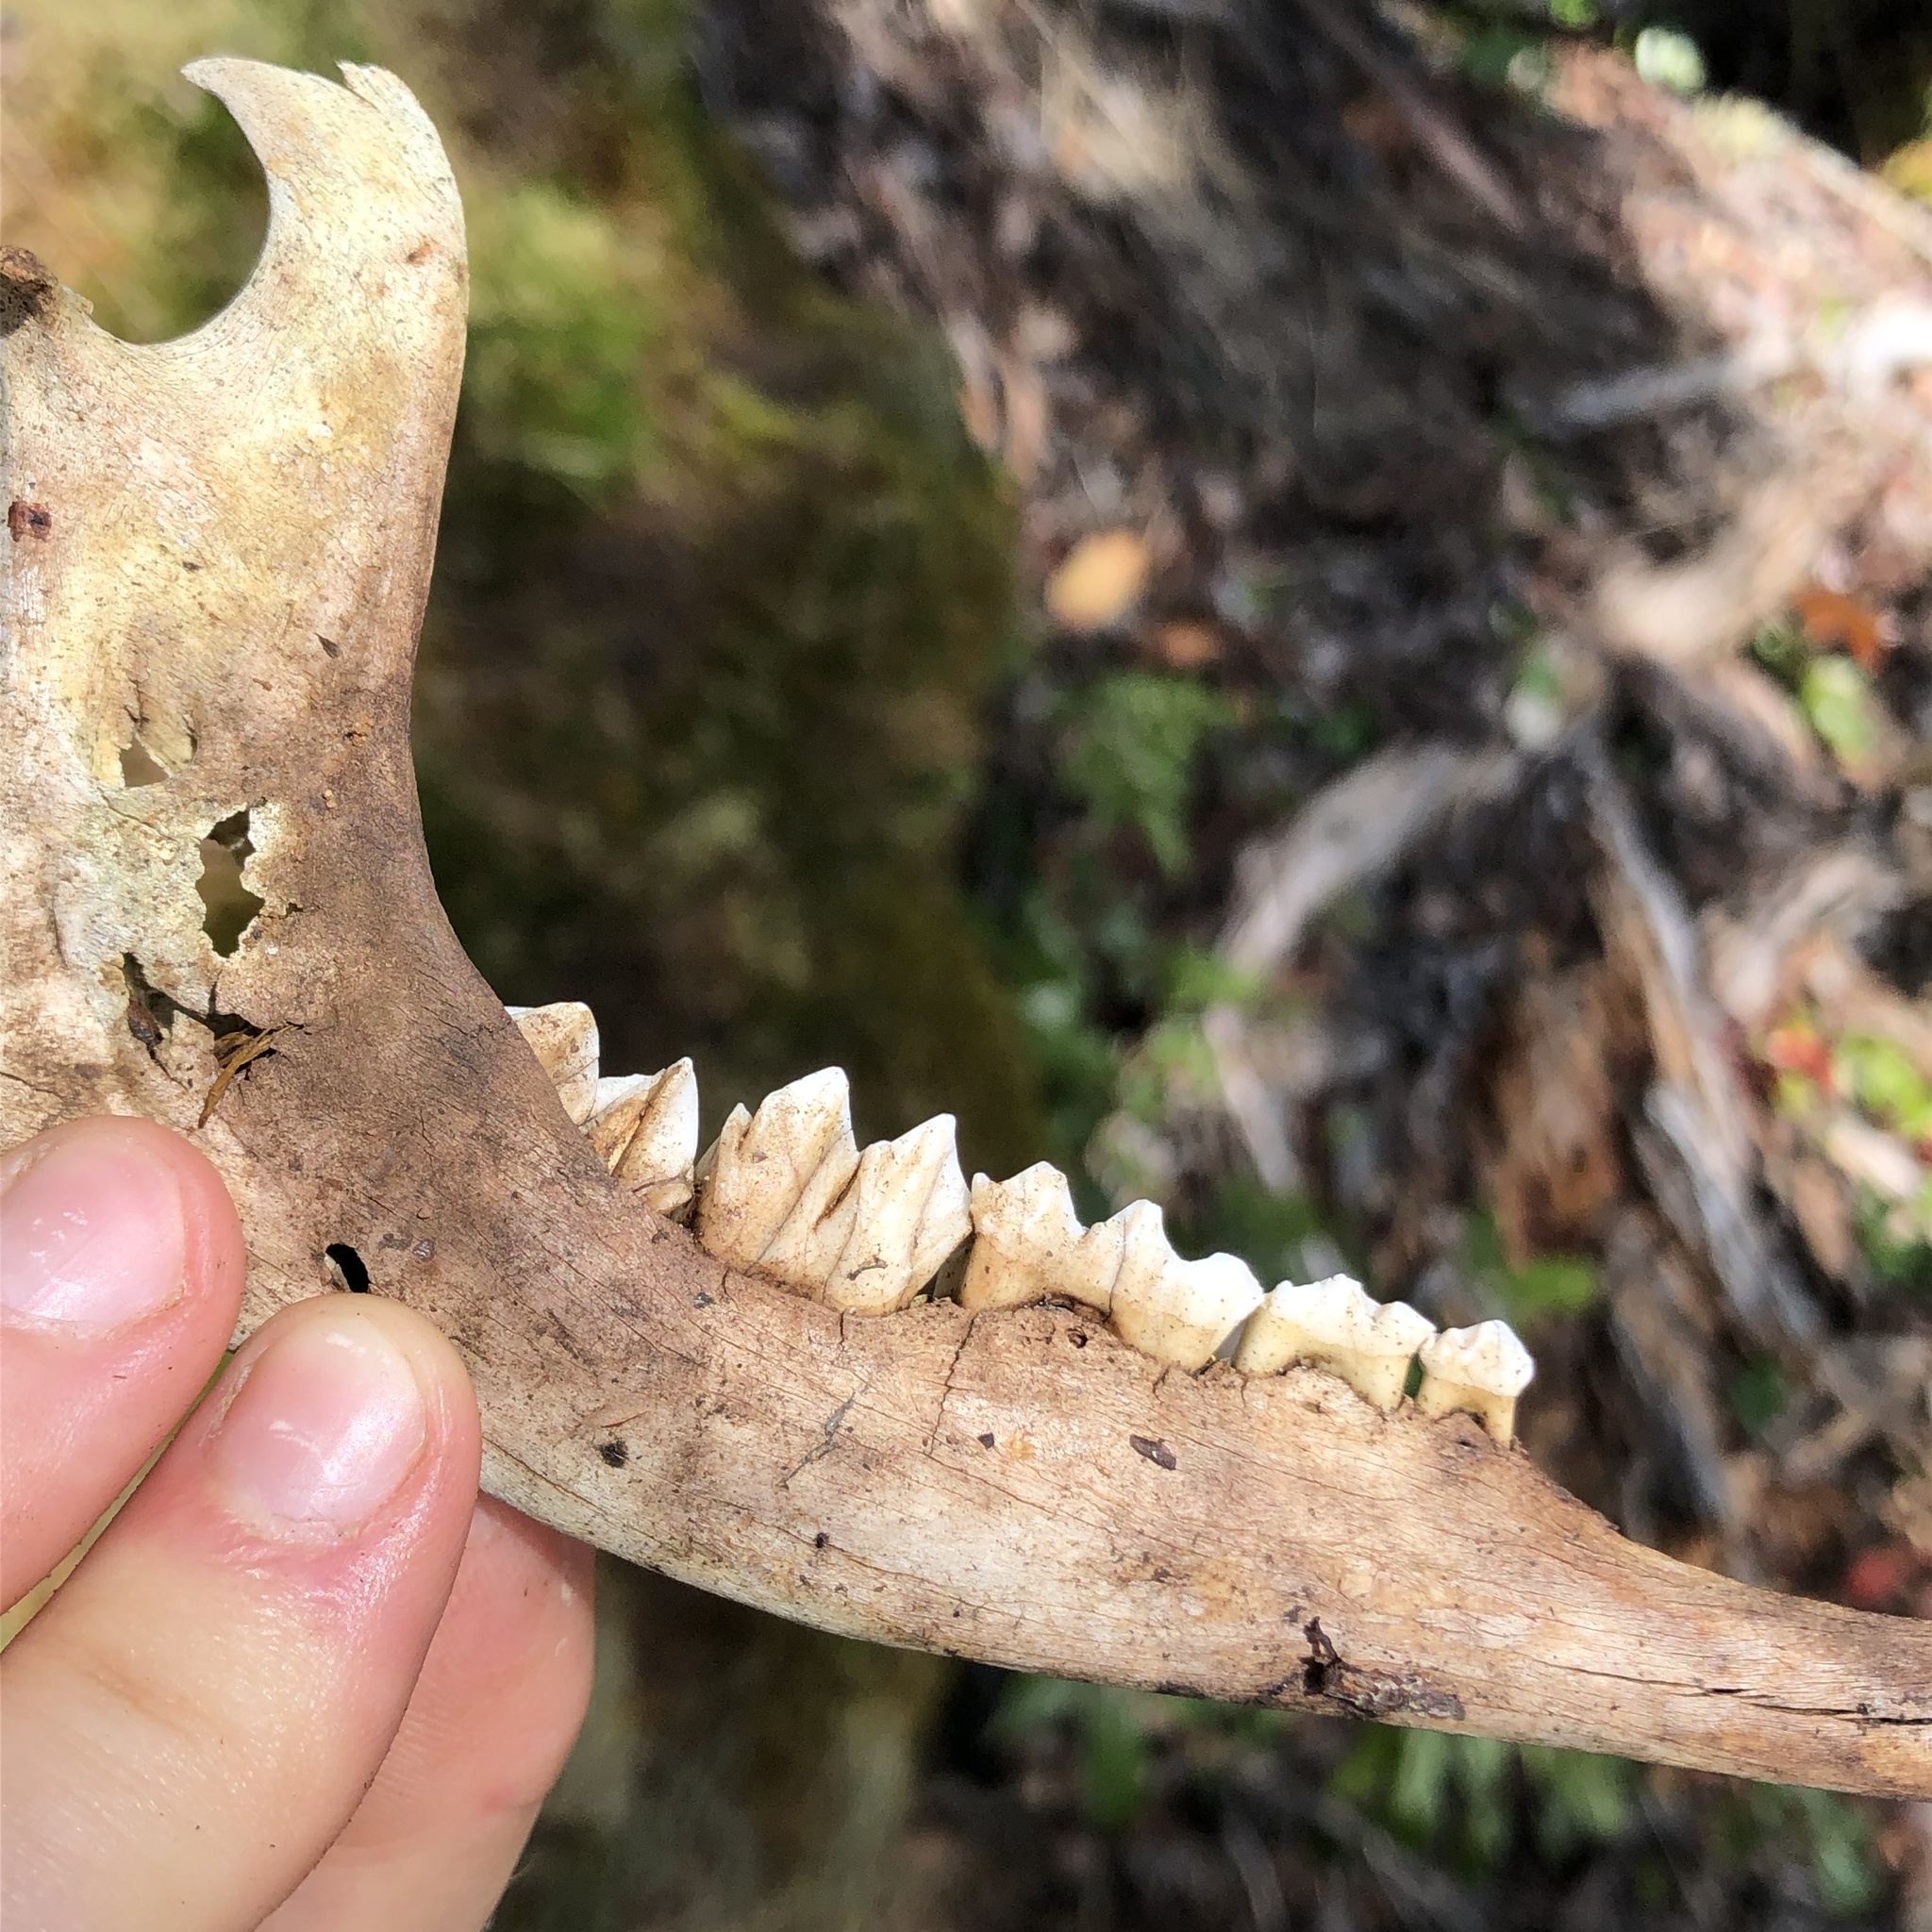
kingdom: Animalia
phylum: Chordata
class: Mammalia
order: Artiodactyla
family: Cervidae
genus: Odocoileus
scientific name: Odocoileus hemionus
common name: Mule deer
